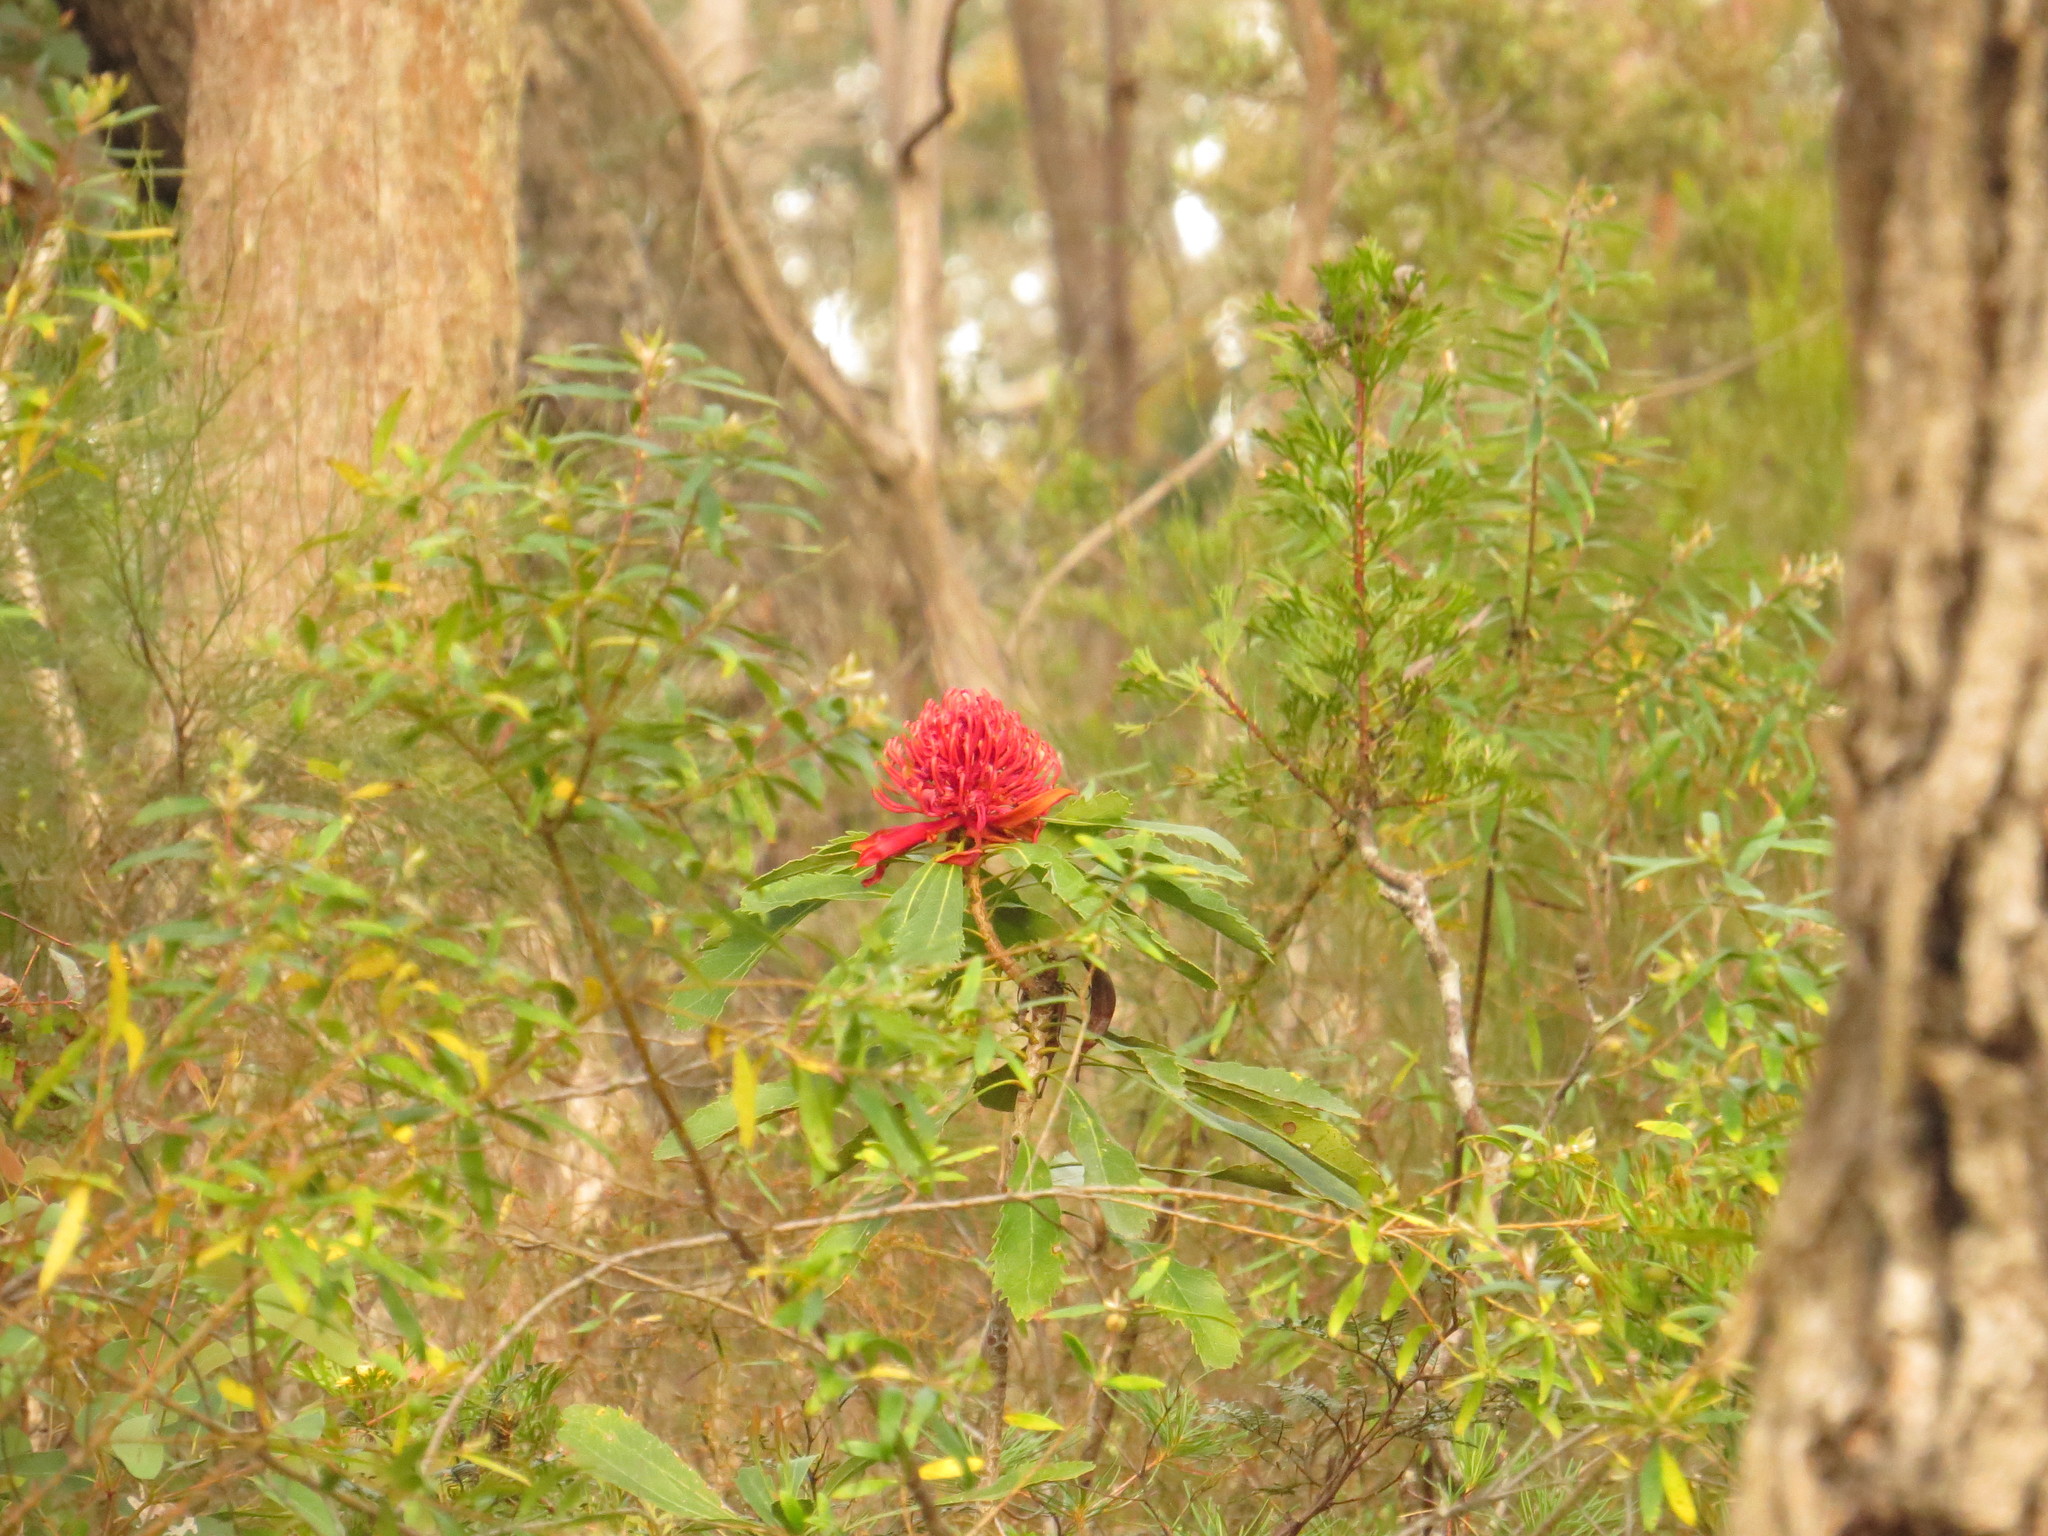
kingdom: Plantae
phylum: Tracheophyta
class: Magnoliopsida
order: Proteales
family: Proteaceae
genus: Telopea
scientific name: Telopea speciosissima
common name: New south wales waratah
